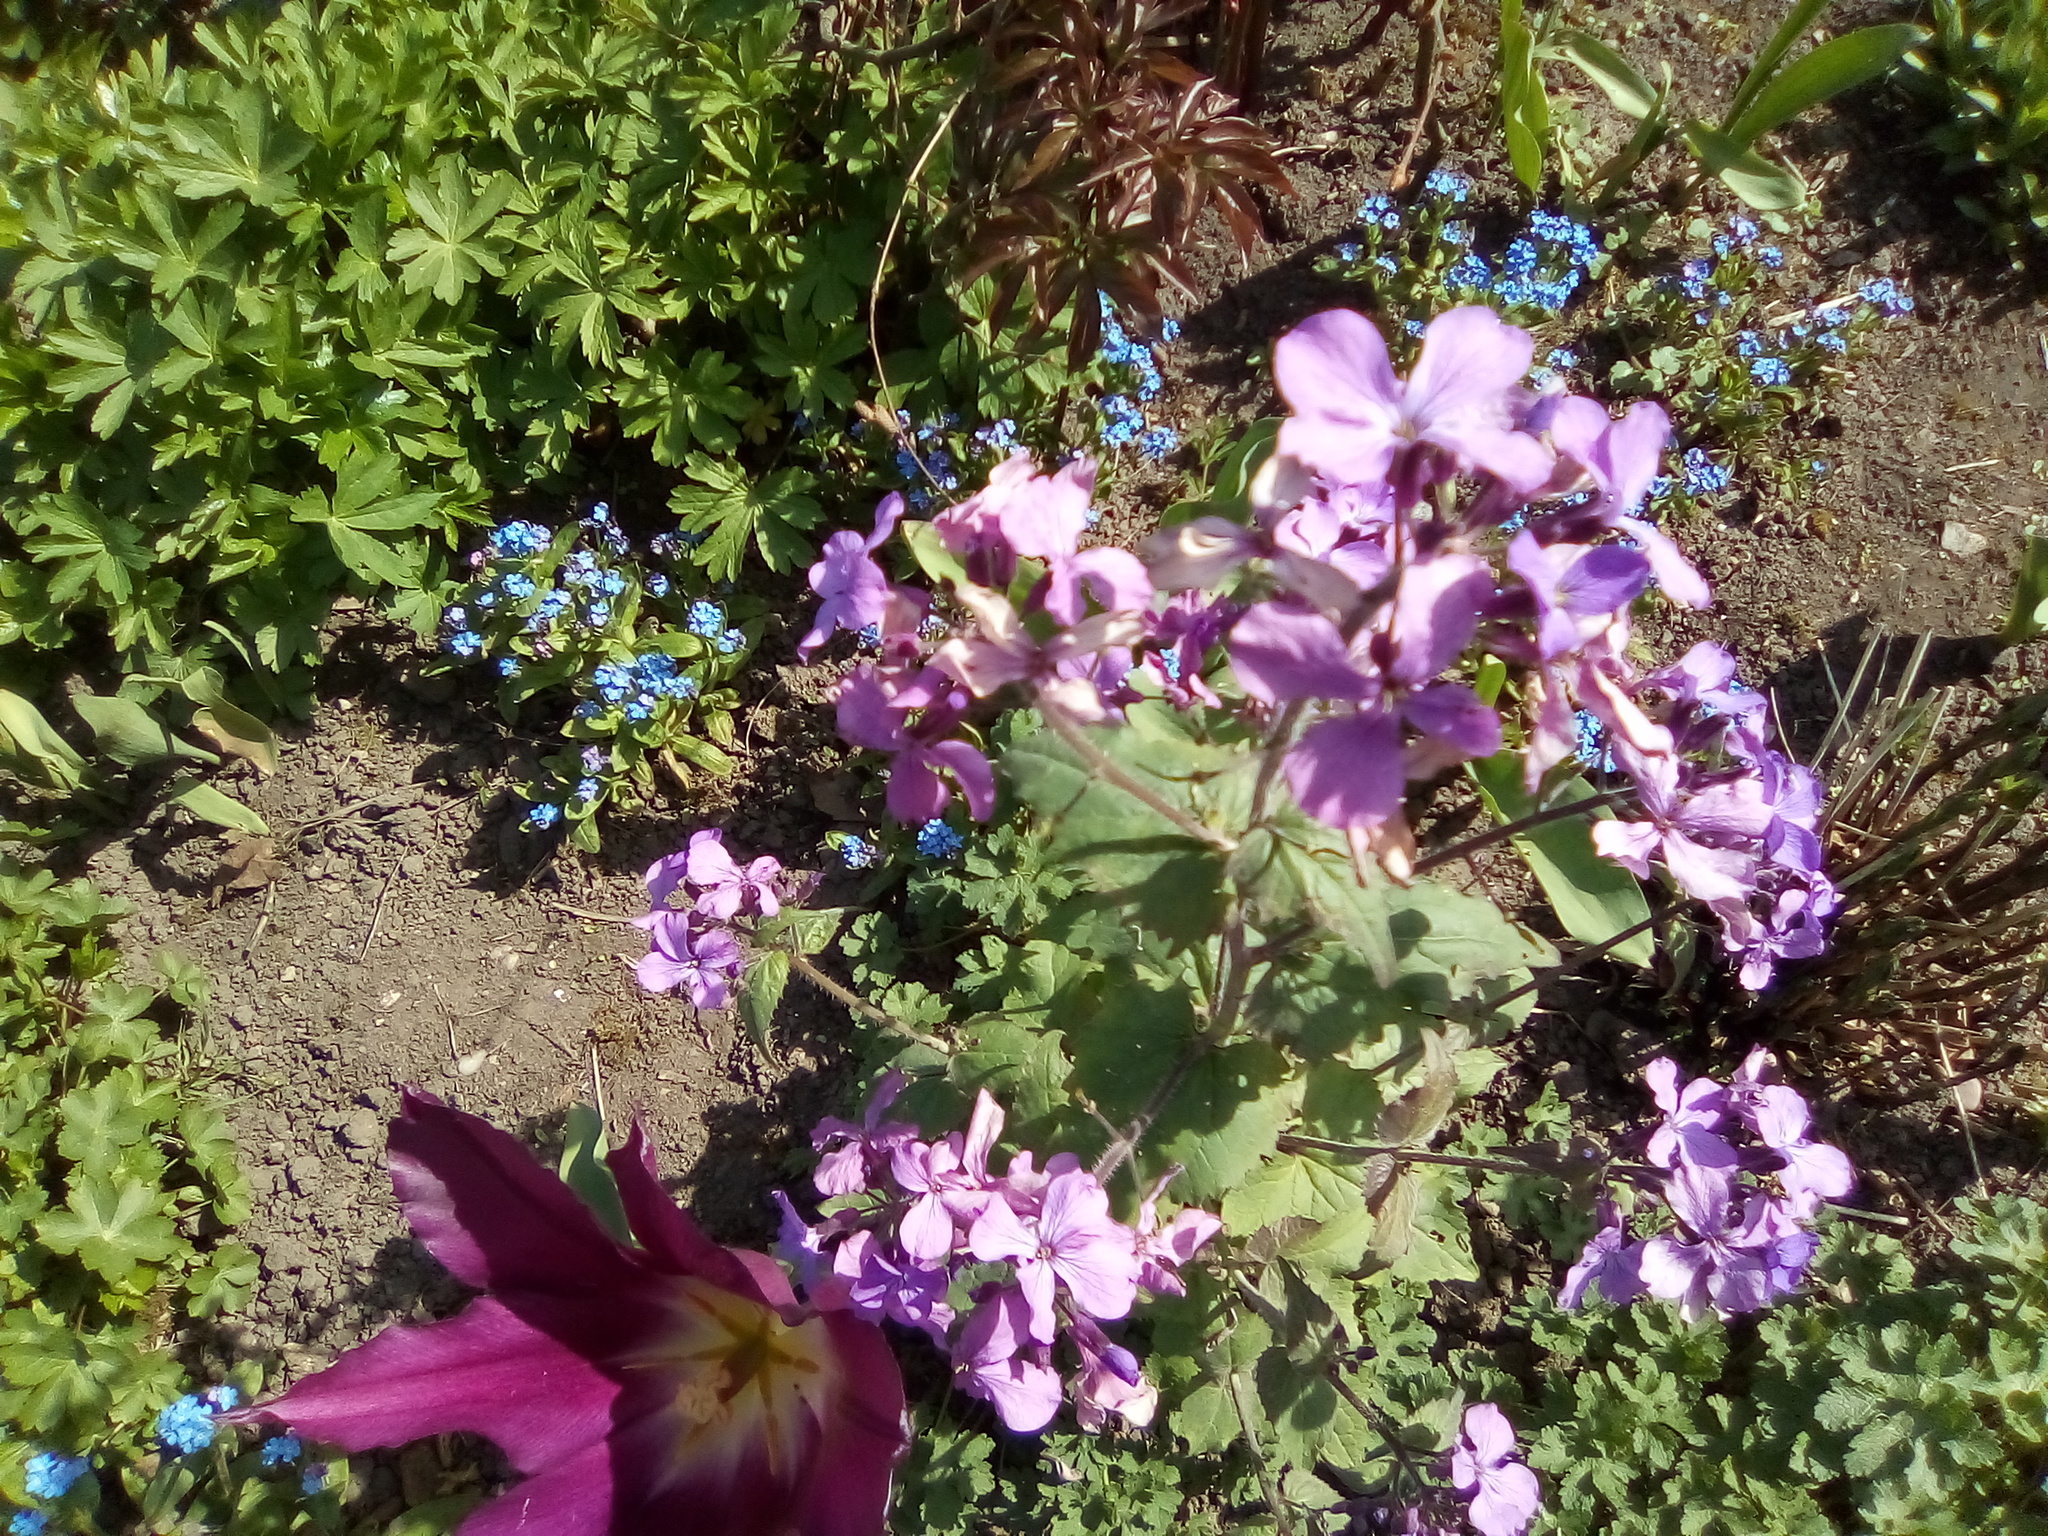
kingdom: Plantae
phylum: Tracheophyta
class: Magnoliopsida
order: Brassicales
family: Brassicaceae
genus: Lunaria
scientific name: Lunaria annua
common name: Honesty
